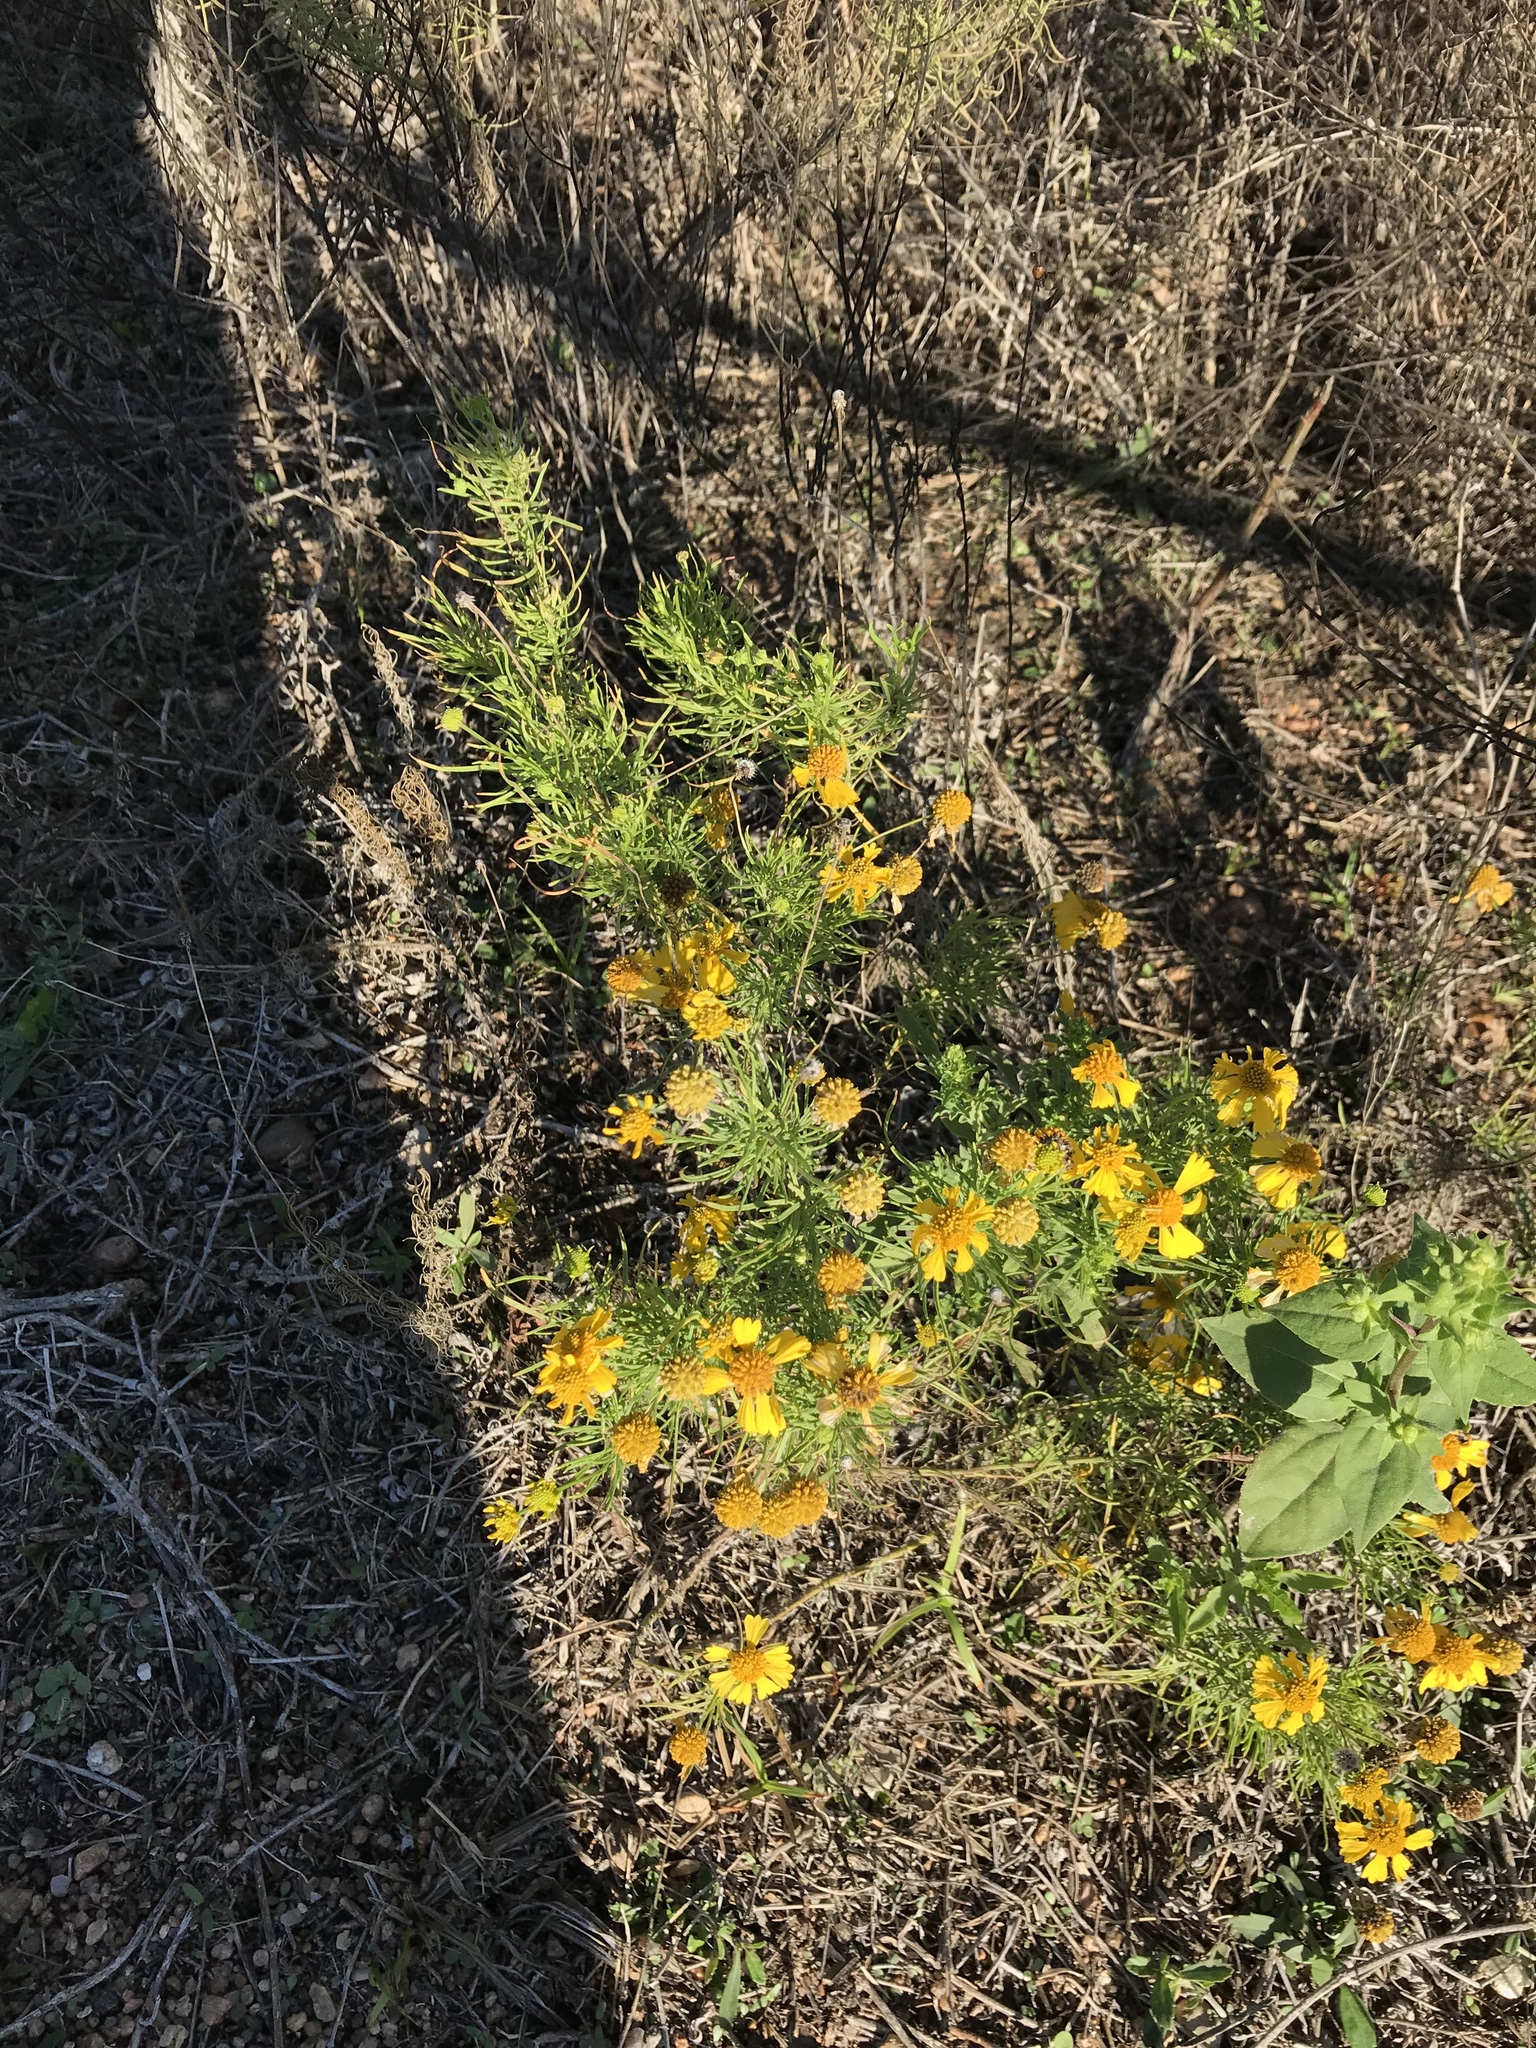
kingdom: Plantae
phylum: Tracheophyta
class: Magnoliopsida
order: Asterales
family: Asteraceae
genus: Helenium
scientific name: Helenium amarum
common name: Bitter sneezeweed
